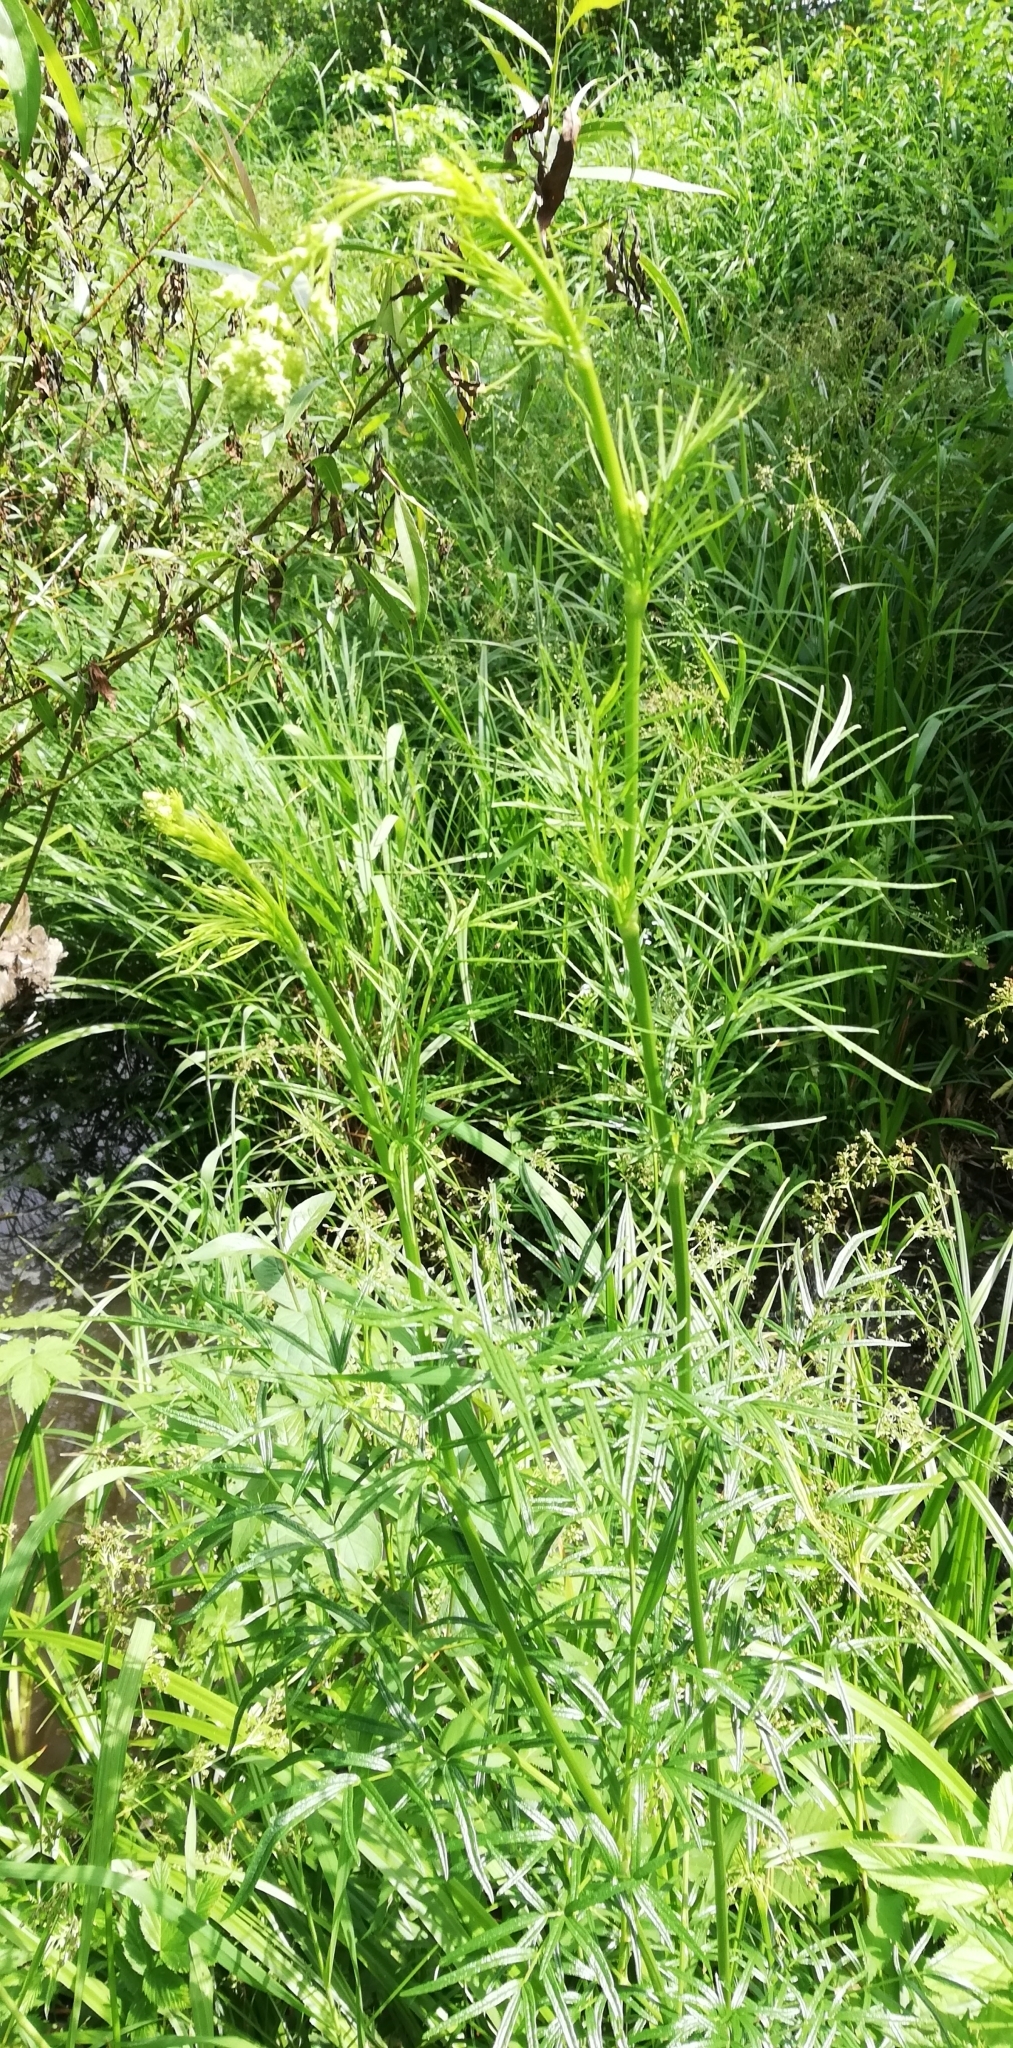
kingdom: Plantae
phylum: Tracheophyta
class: Magnoliopsida
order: Ranunculales
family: Ranunculaceae
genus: Thalictrum
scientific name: Thalictrum lucidum
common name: Shining meadow-rue
